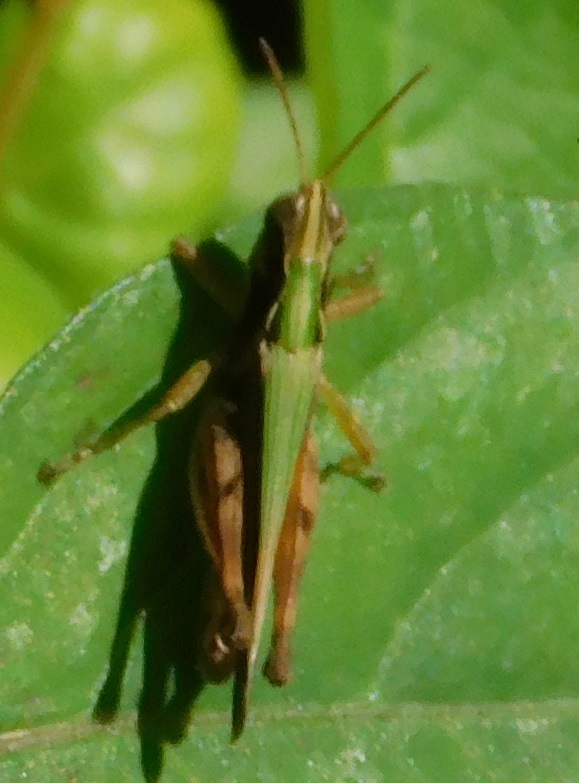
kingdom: Animalia
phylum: Arthropoda
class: Insecta
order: Orthoptera
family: Acrididae
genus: Orphulella
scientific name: Orphulella punctata
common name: Slant-faced grasshopper
